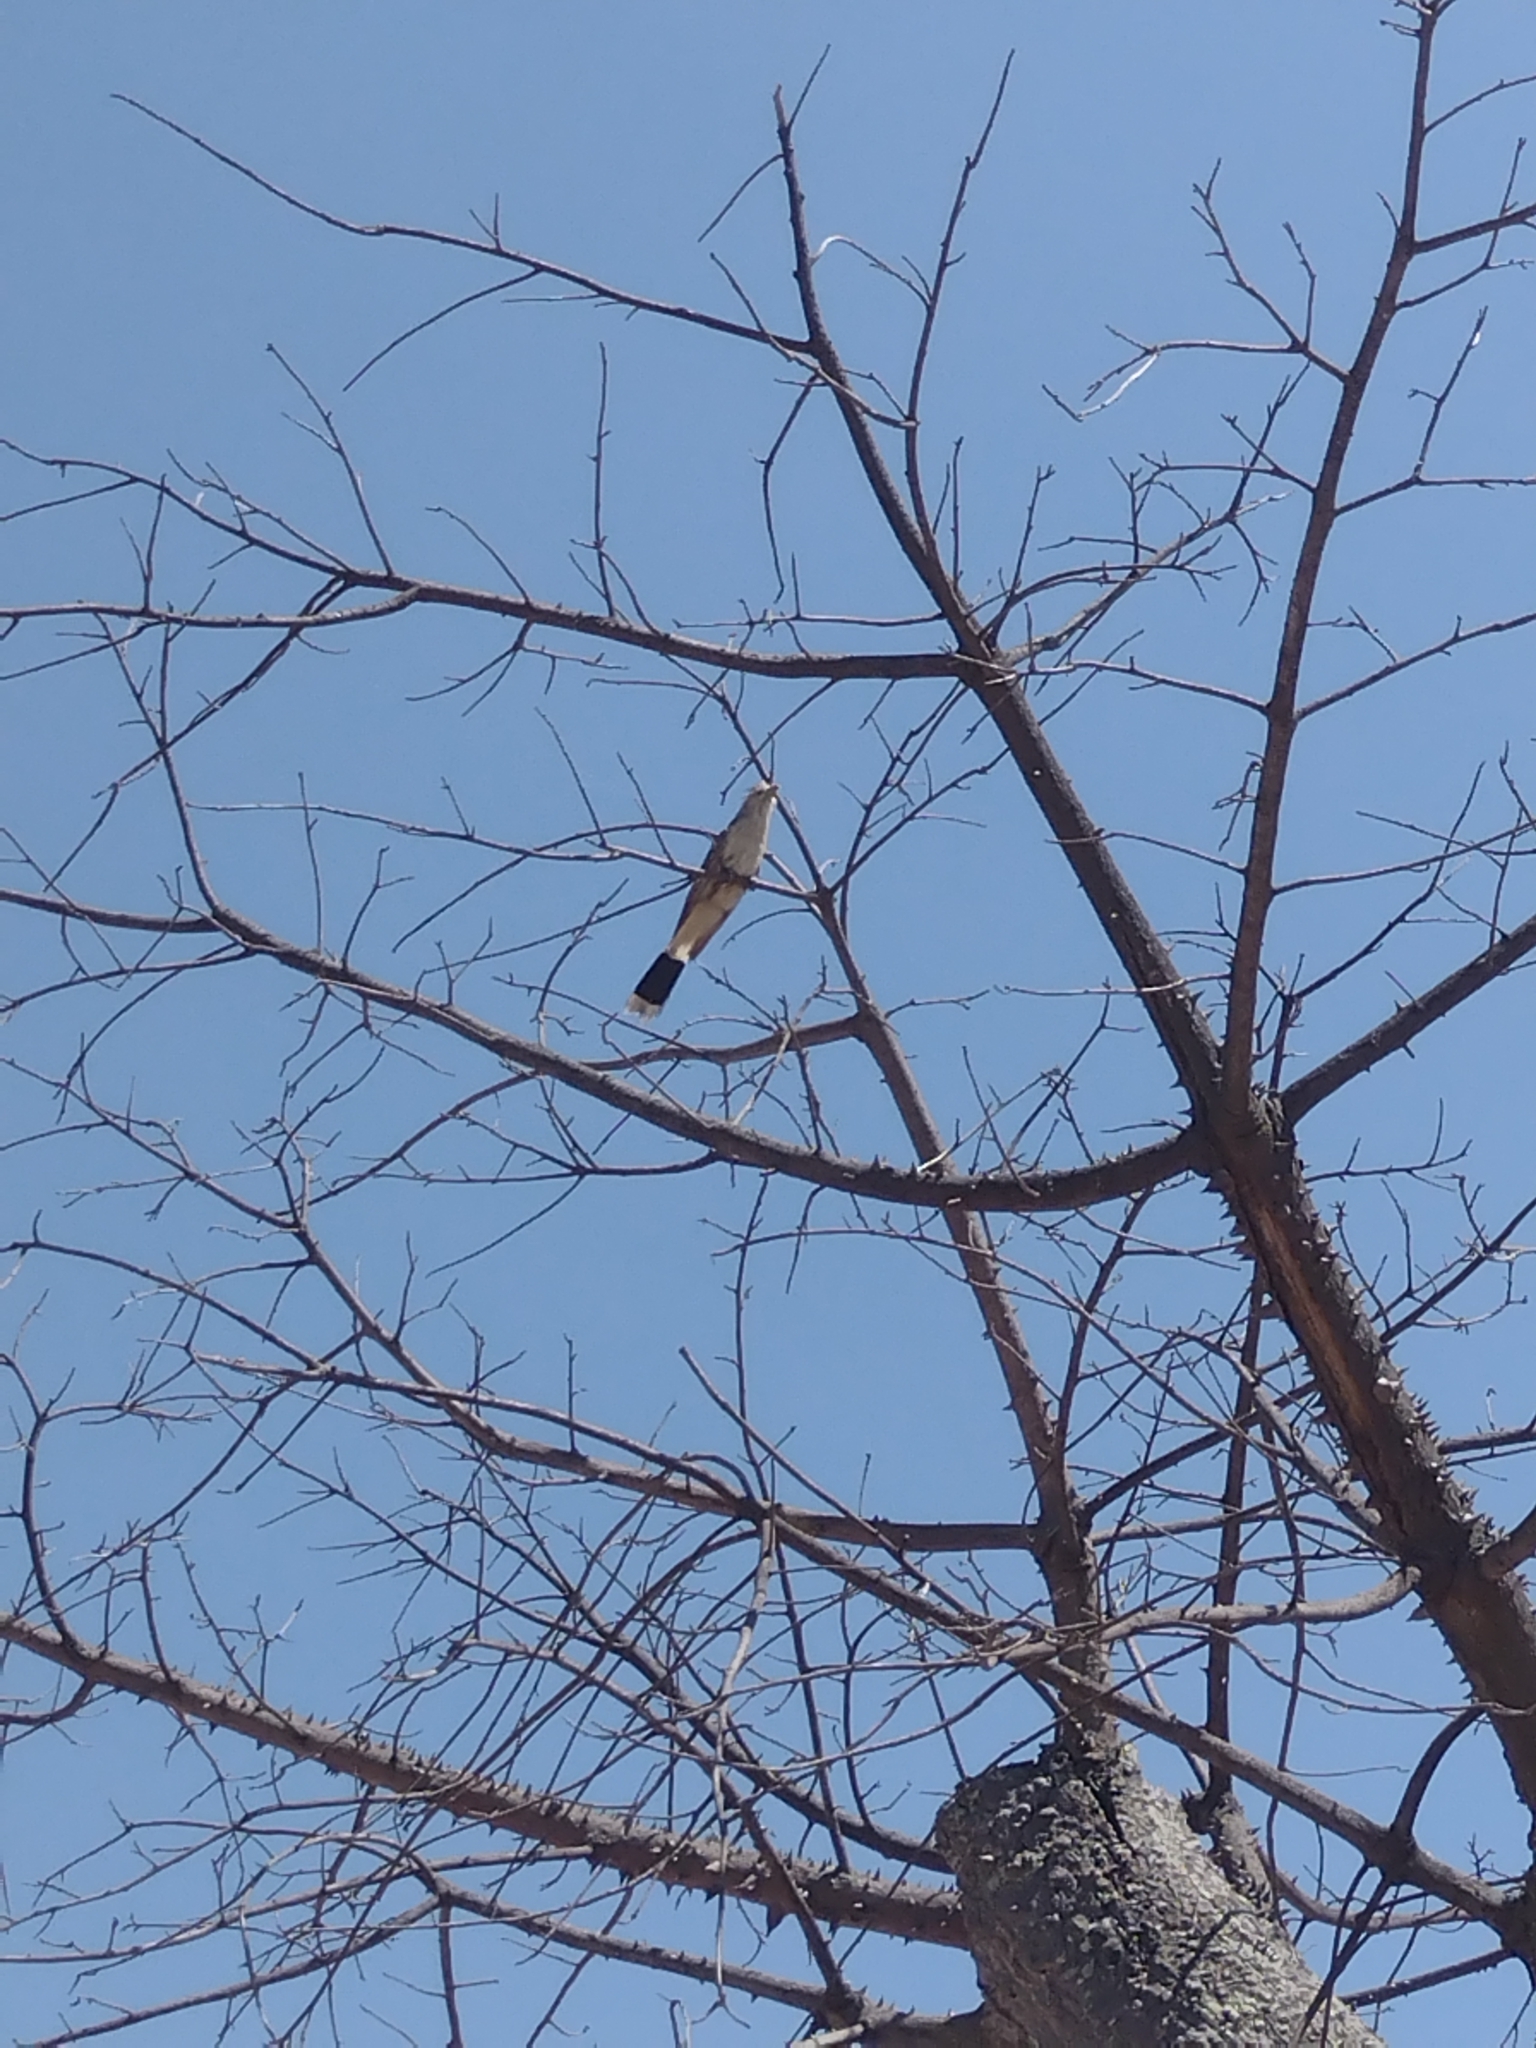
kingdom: Animalia
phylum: Chordata
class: Aves
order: Cuculiformes
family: Cuculidae
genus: Guira
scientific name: Guira guira
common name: Guira cuckoo
